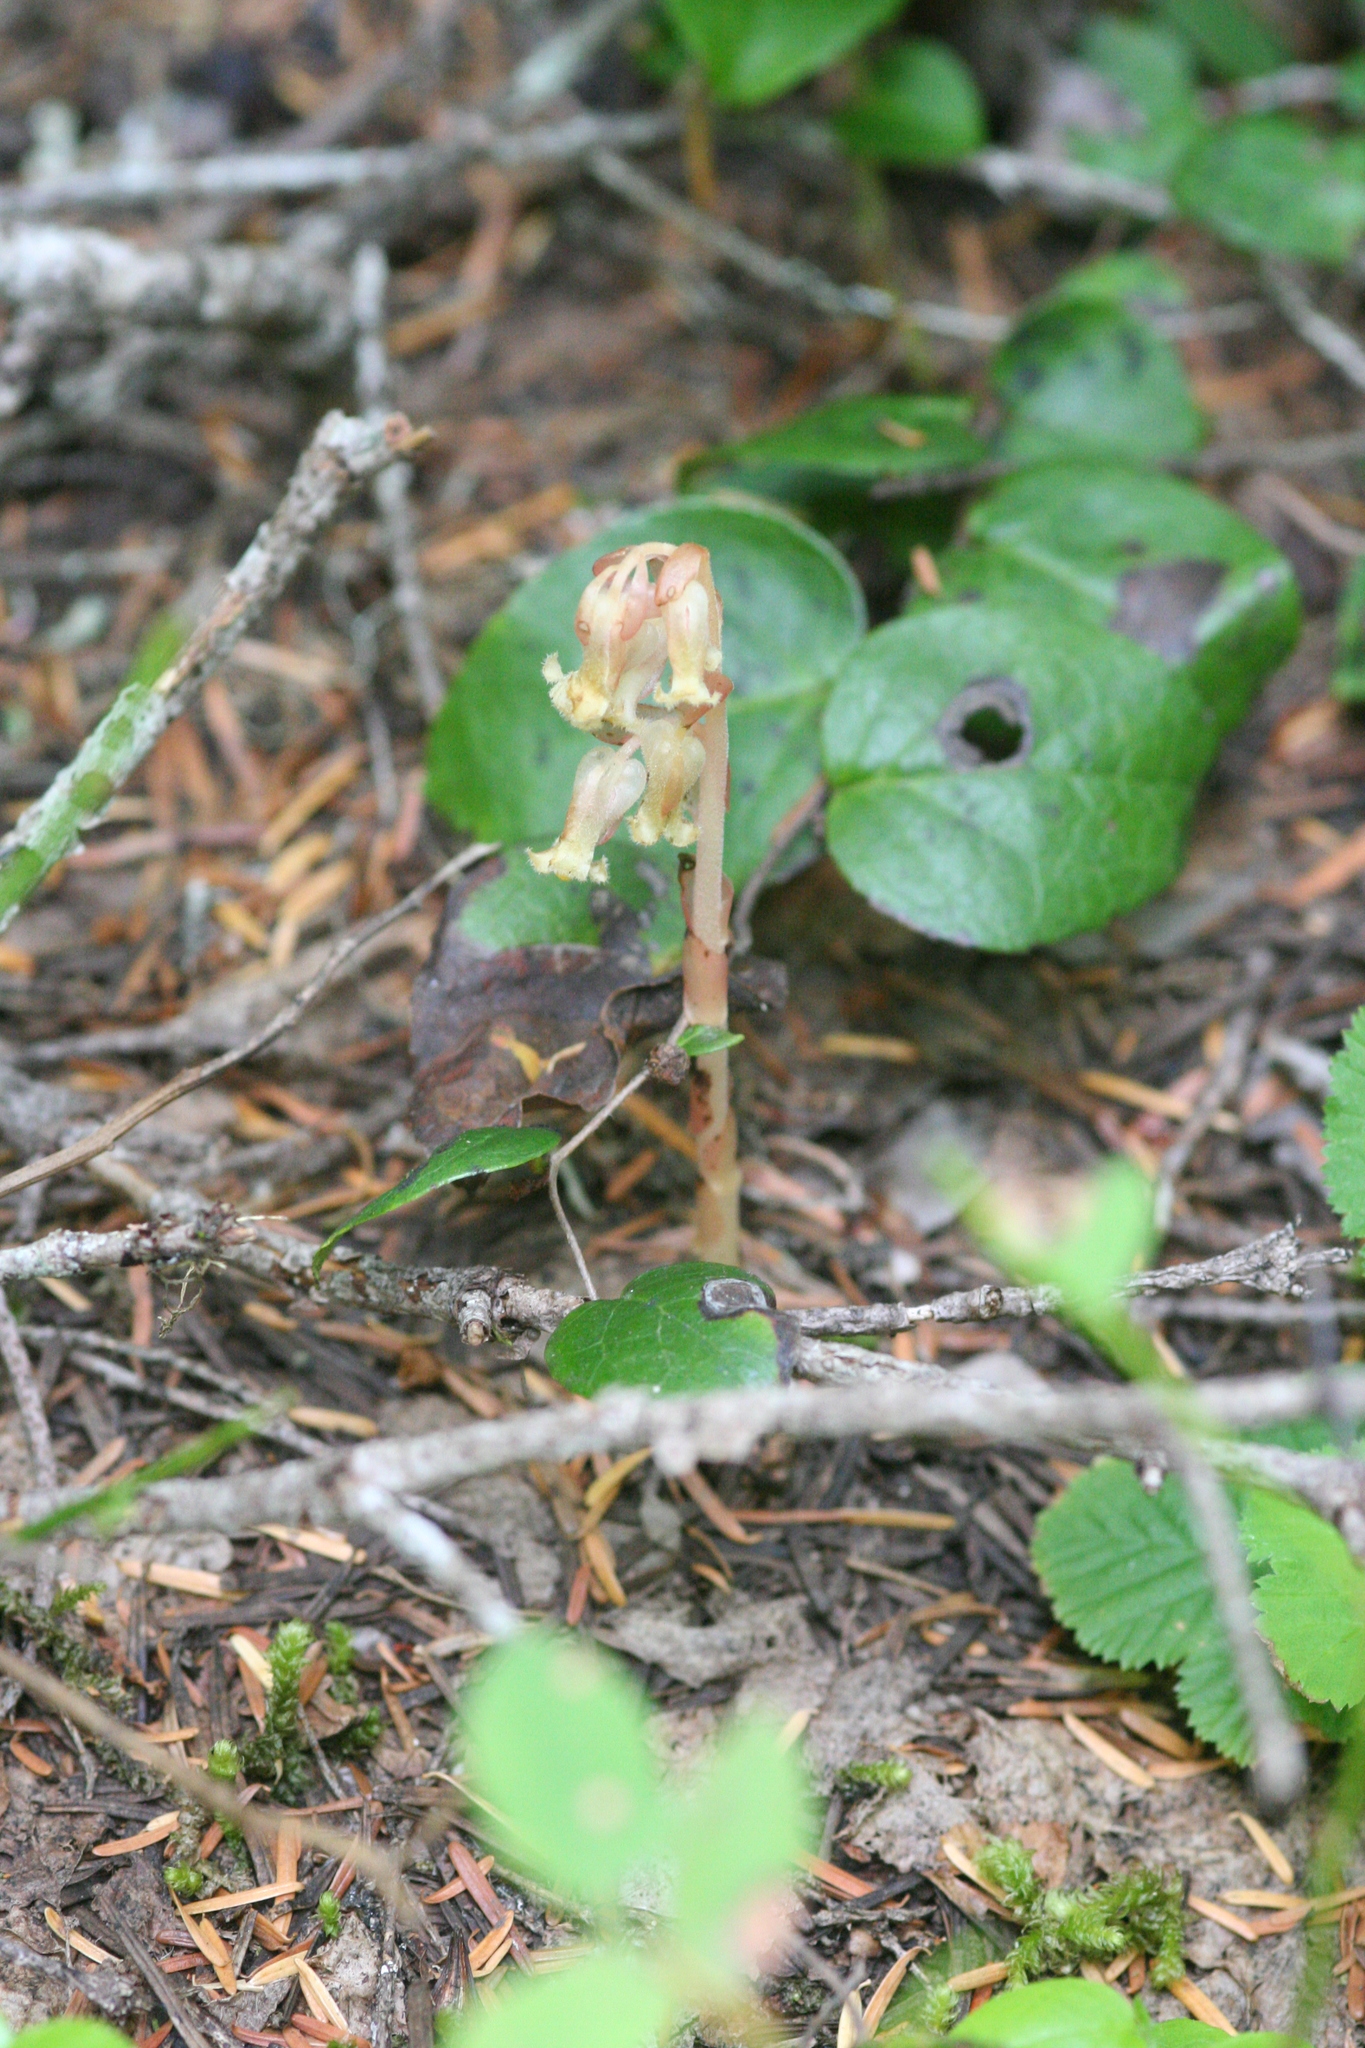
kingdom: Plantae
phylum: Tracheophyta
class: Magnoliopsida
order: Ericales
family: Ericaceae
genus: Hypopitys
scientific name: Hypopitys monotropa
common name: Yellow bird's-nest
